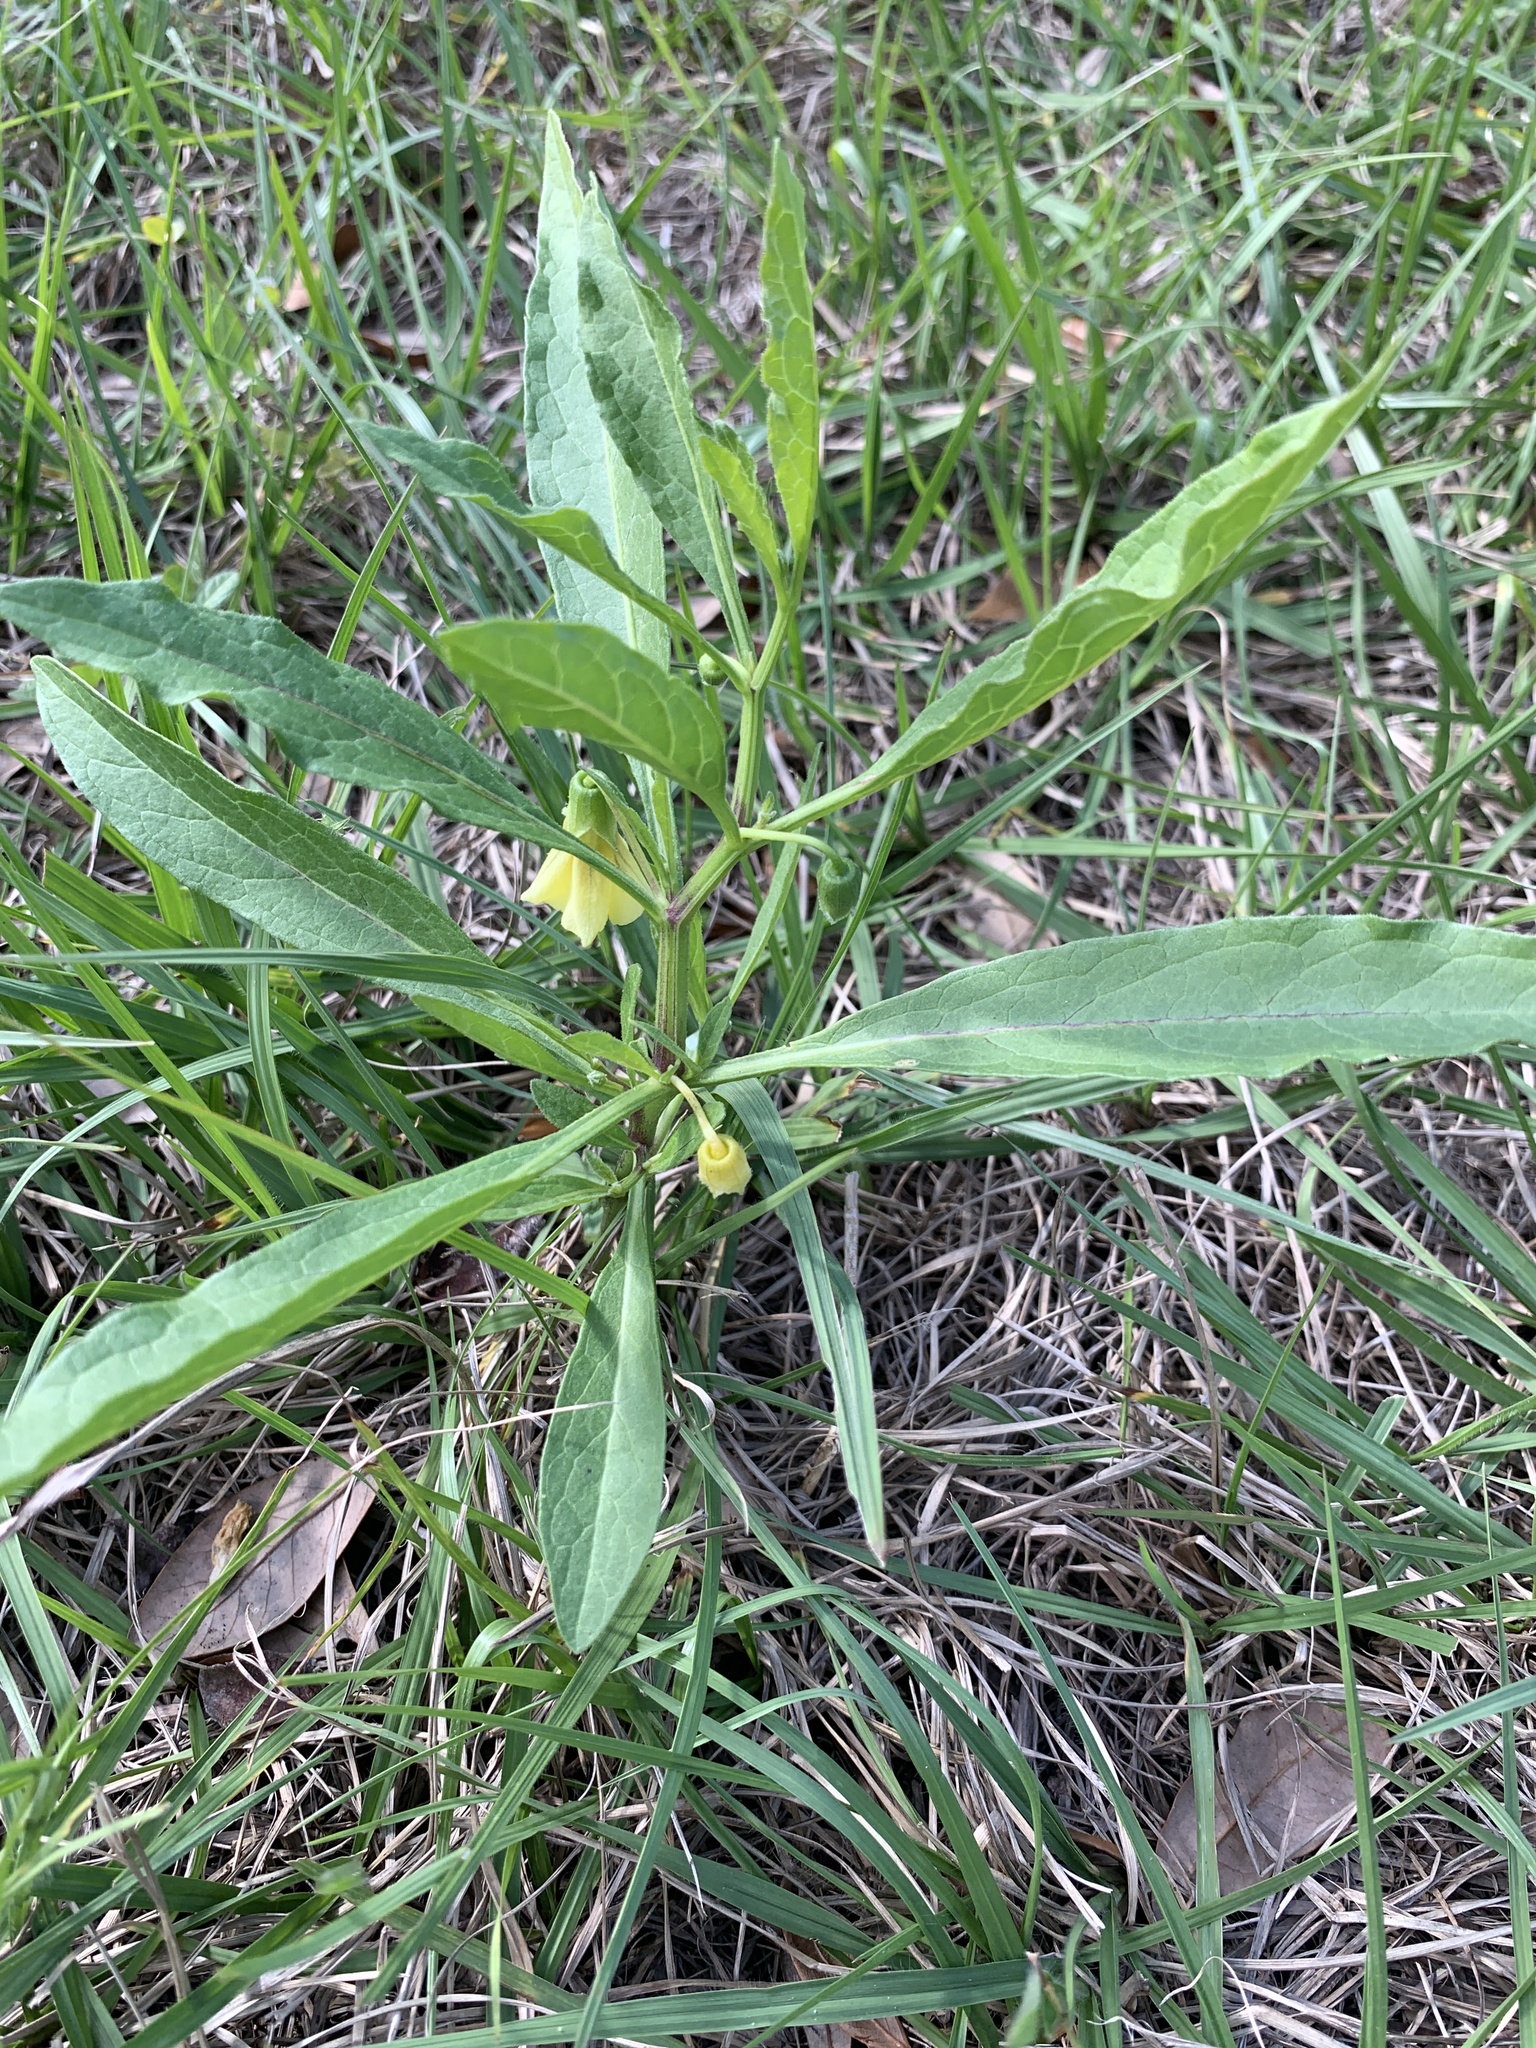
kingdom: Plantae
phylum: Tracheophyta
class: Magnoliopsida
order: Solanales
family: Solanaceae
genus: Physalis
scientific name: Physalis elliottii
